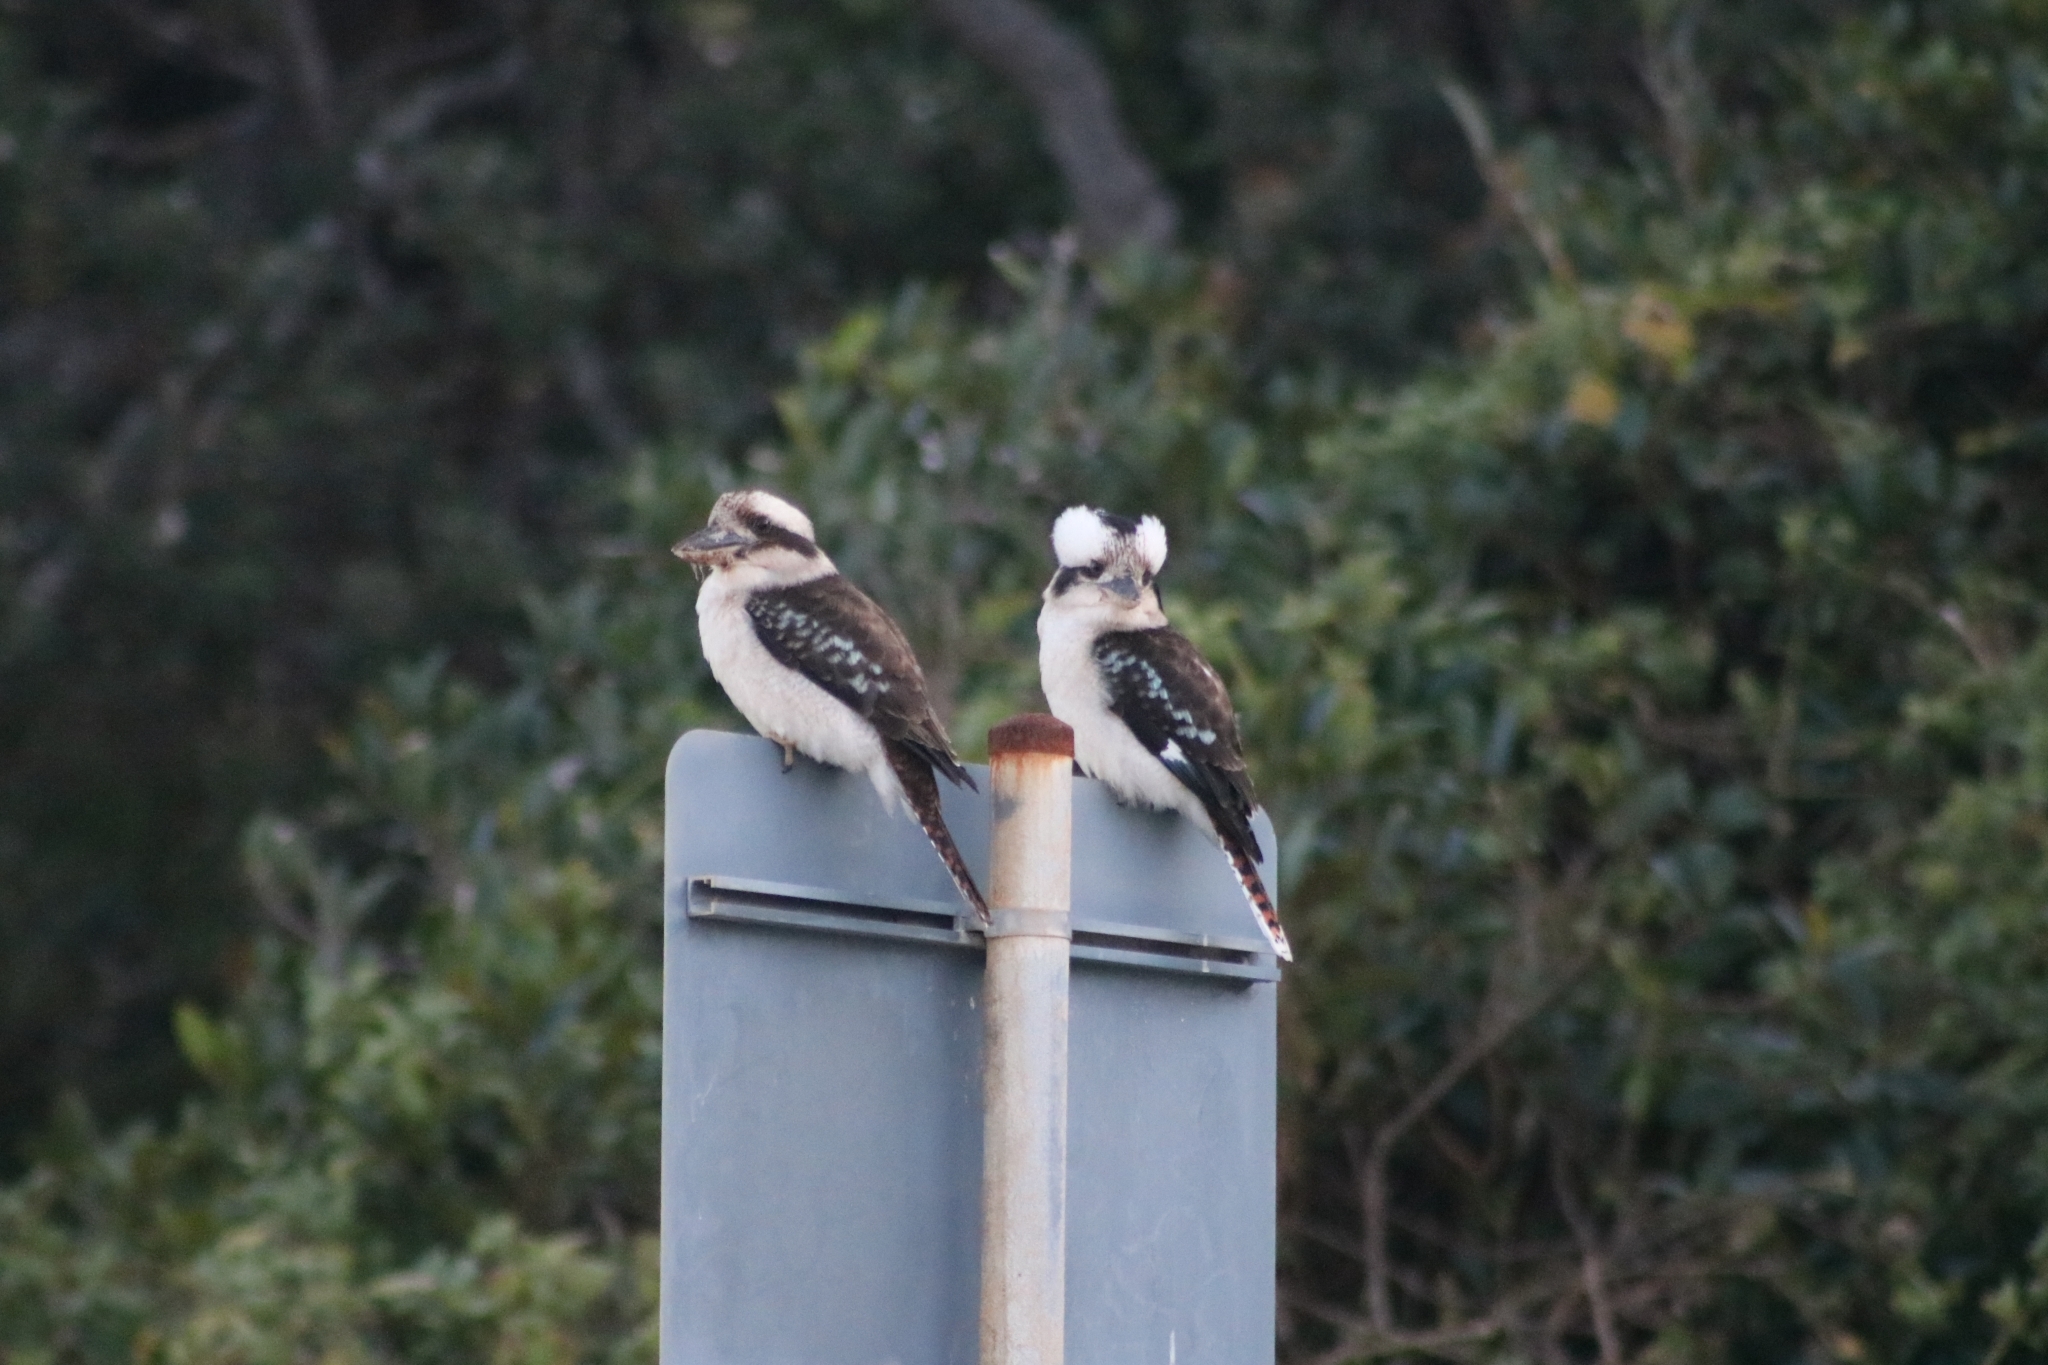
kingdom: Animalia
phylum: Chordata
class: Aves
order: Coraciiformes
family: Alcedinidae
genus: Dacelo
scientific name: Dacelo novaeguineae
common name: Laughing kookaburra
